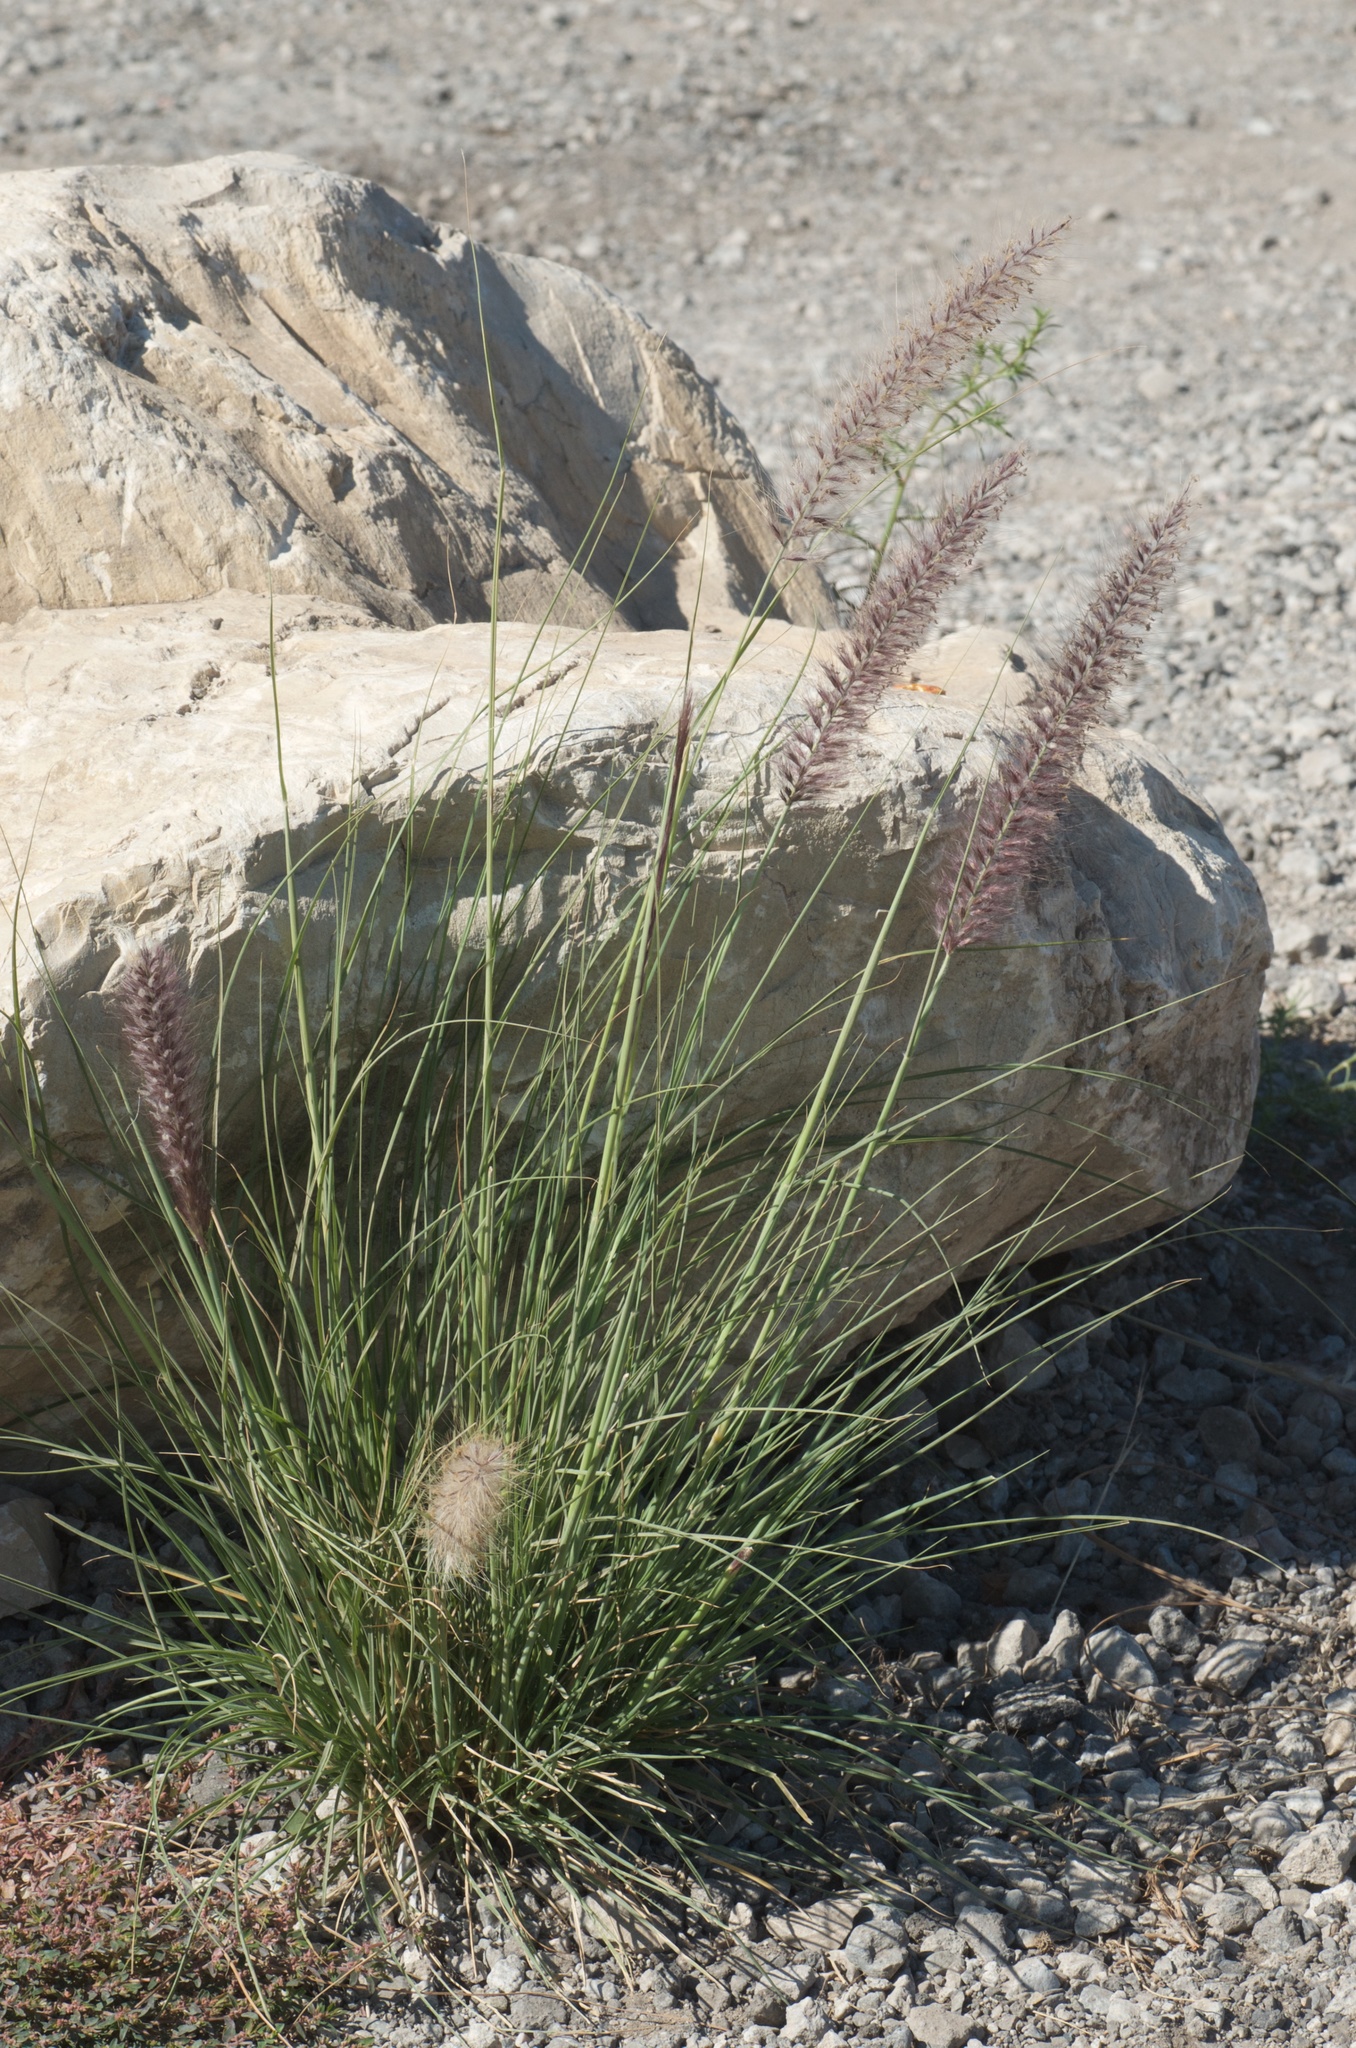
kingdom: Plantae
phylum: Tracheophyta
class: Liliopsida
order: Poales
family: Poaceae
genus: Cenchrus
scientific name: Cenchrus setaceus
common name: Crimson fountaingrass
